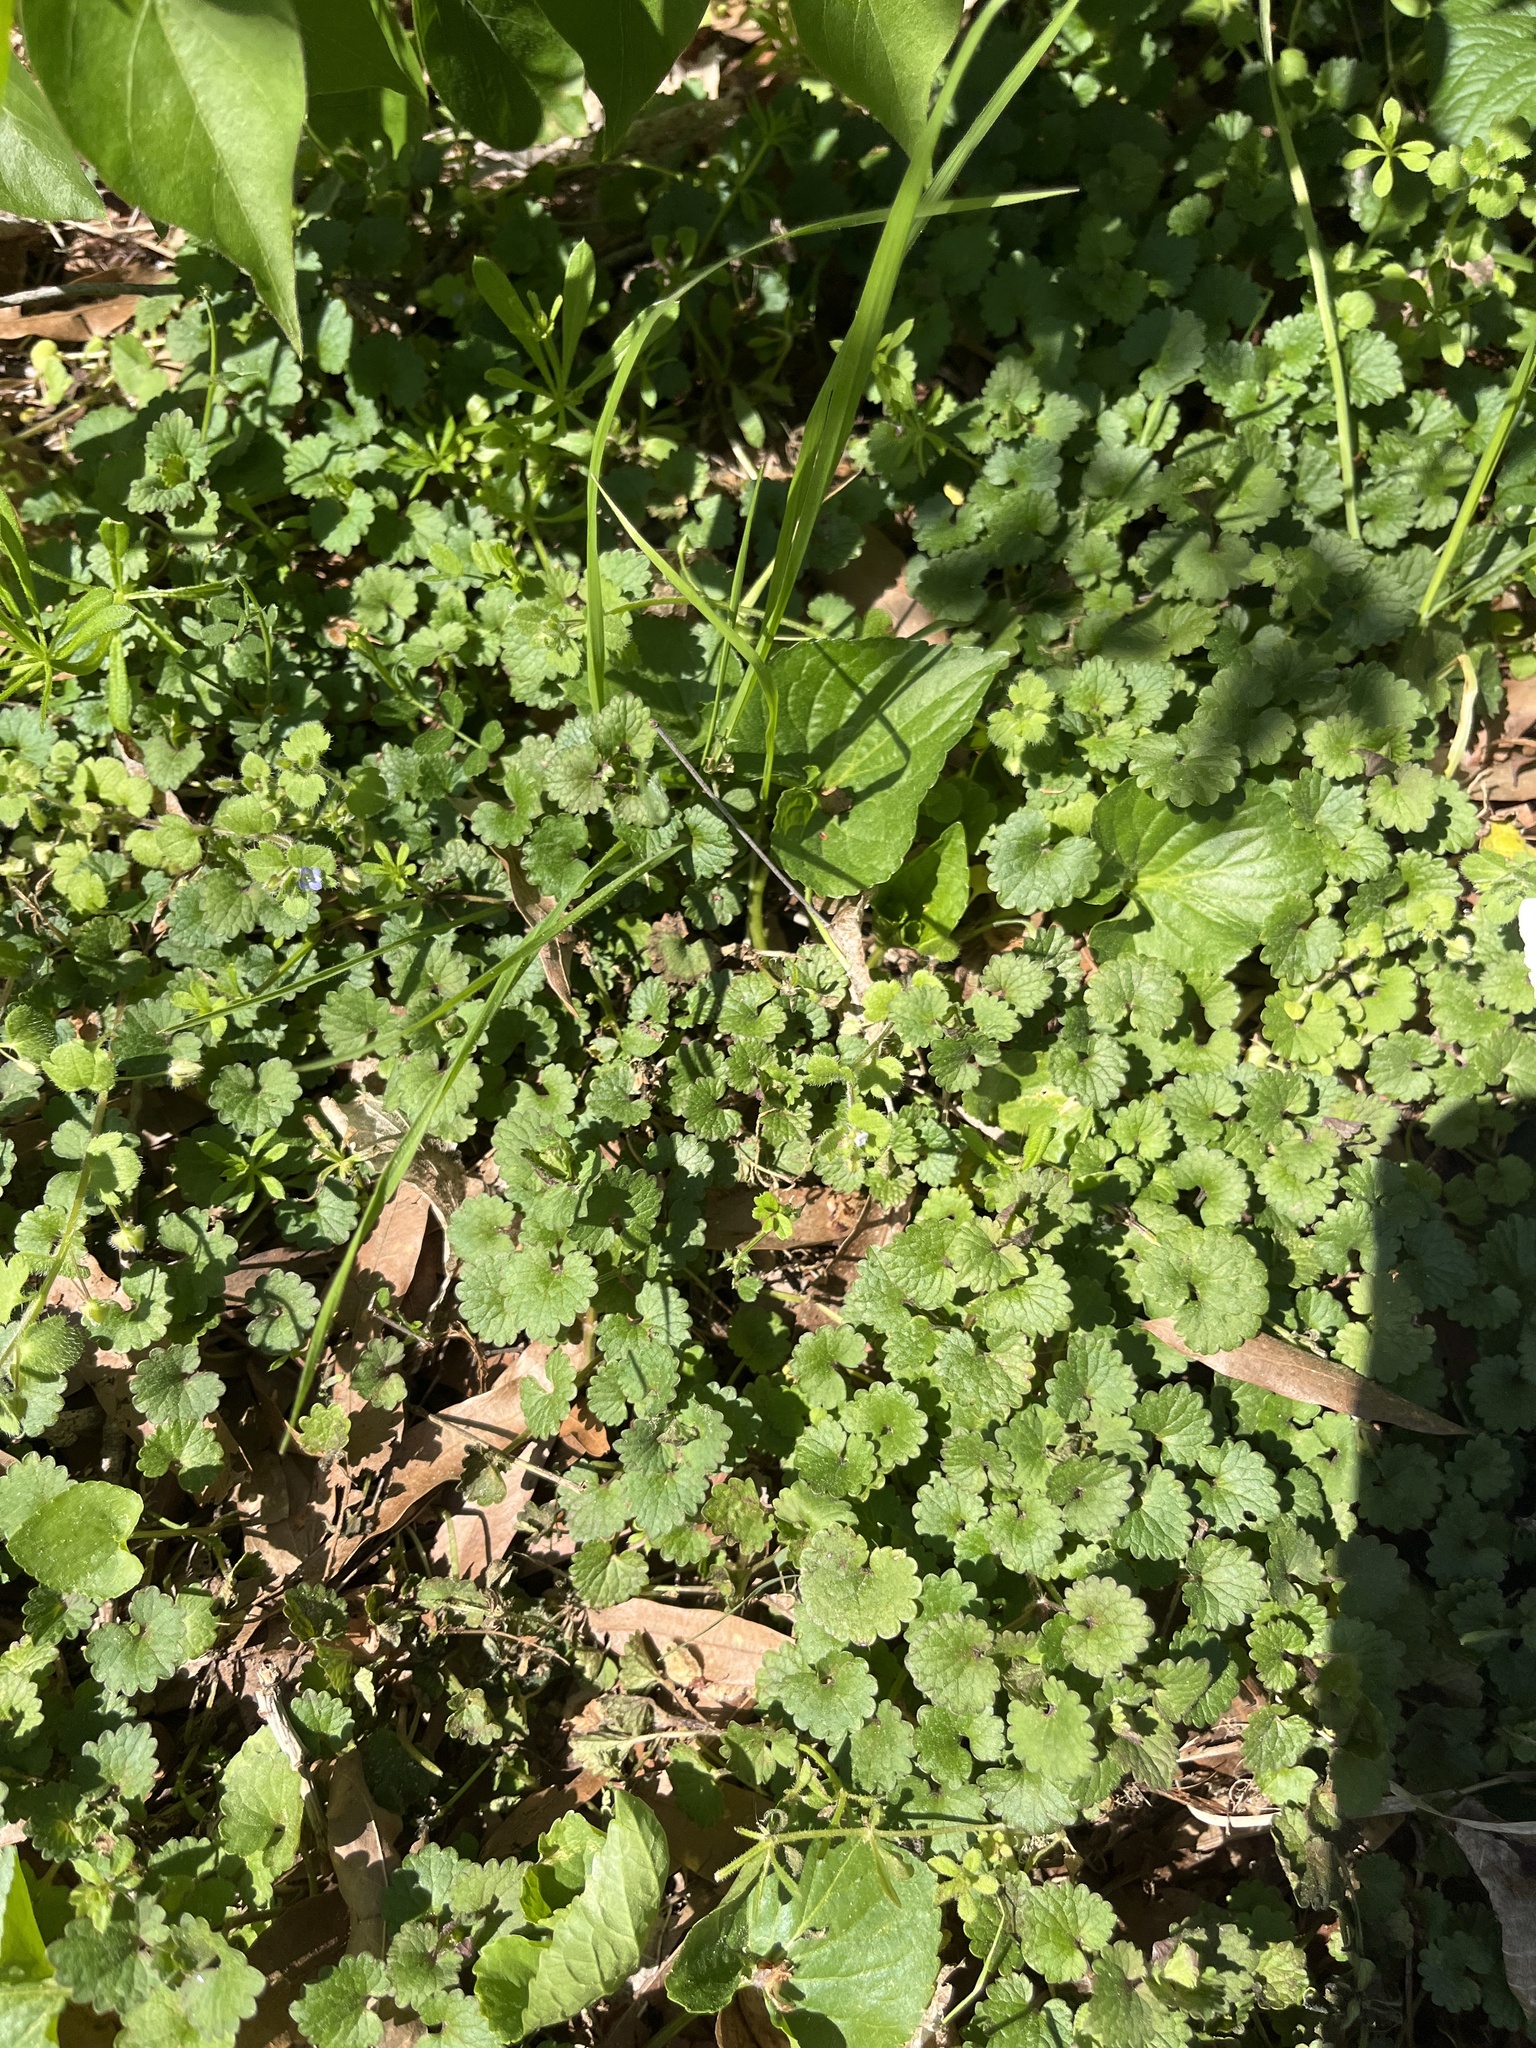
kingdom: Plantae
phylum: Tracheophyta
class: Magnoliopsida
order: Lamiales
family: Lamiaceae
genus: Glechoma
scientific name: Glechoma hederacea
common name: Ground ivy
